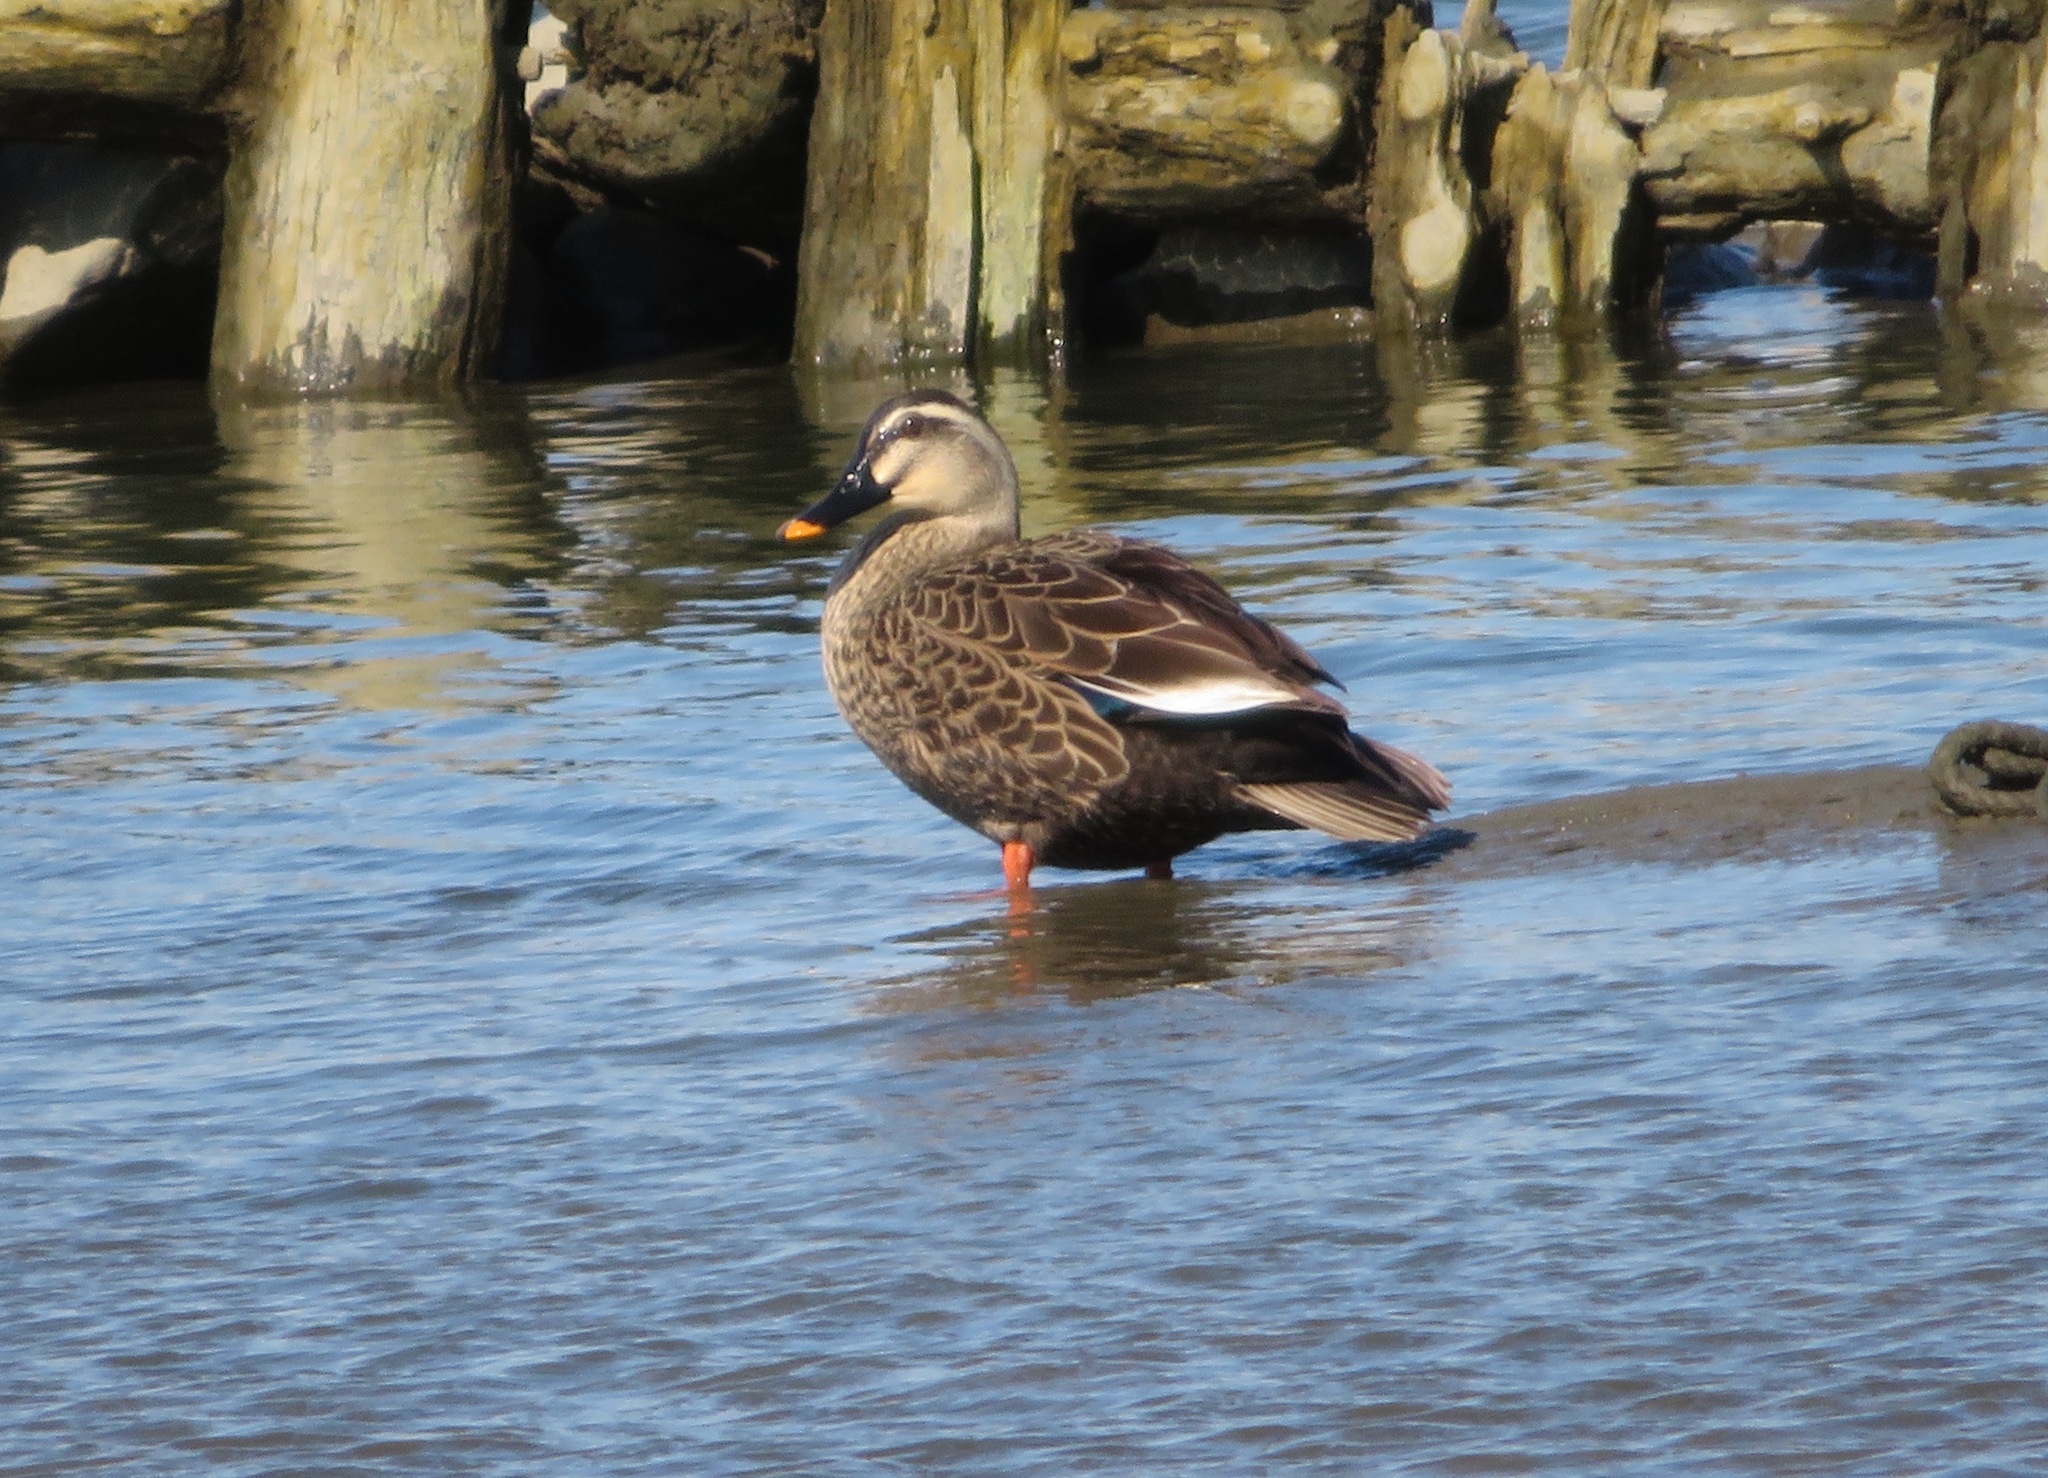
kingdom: Animalia
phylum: Chordata
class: Aves
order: Anseriformes
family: Anatidae
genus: Anas
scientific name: Anas zonorhyncha
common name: Eastern spot-billed duck
